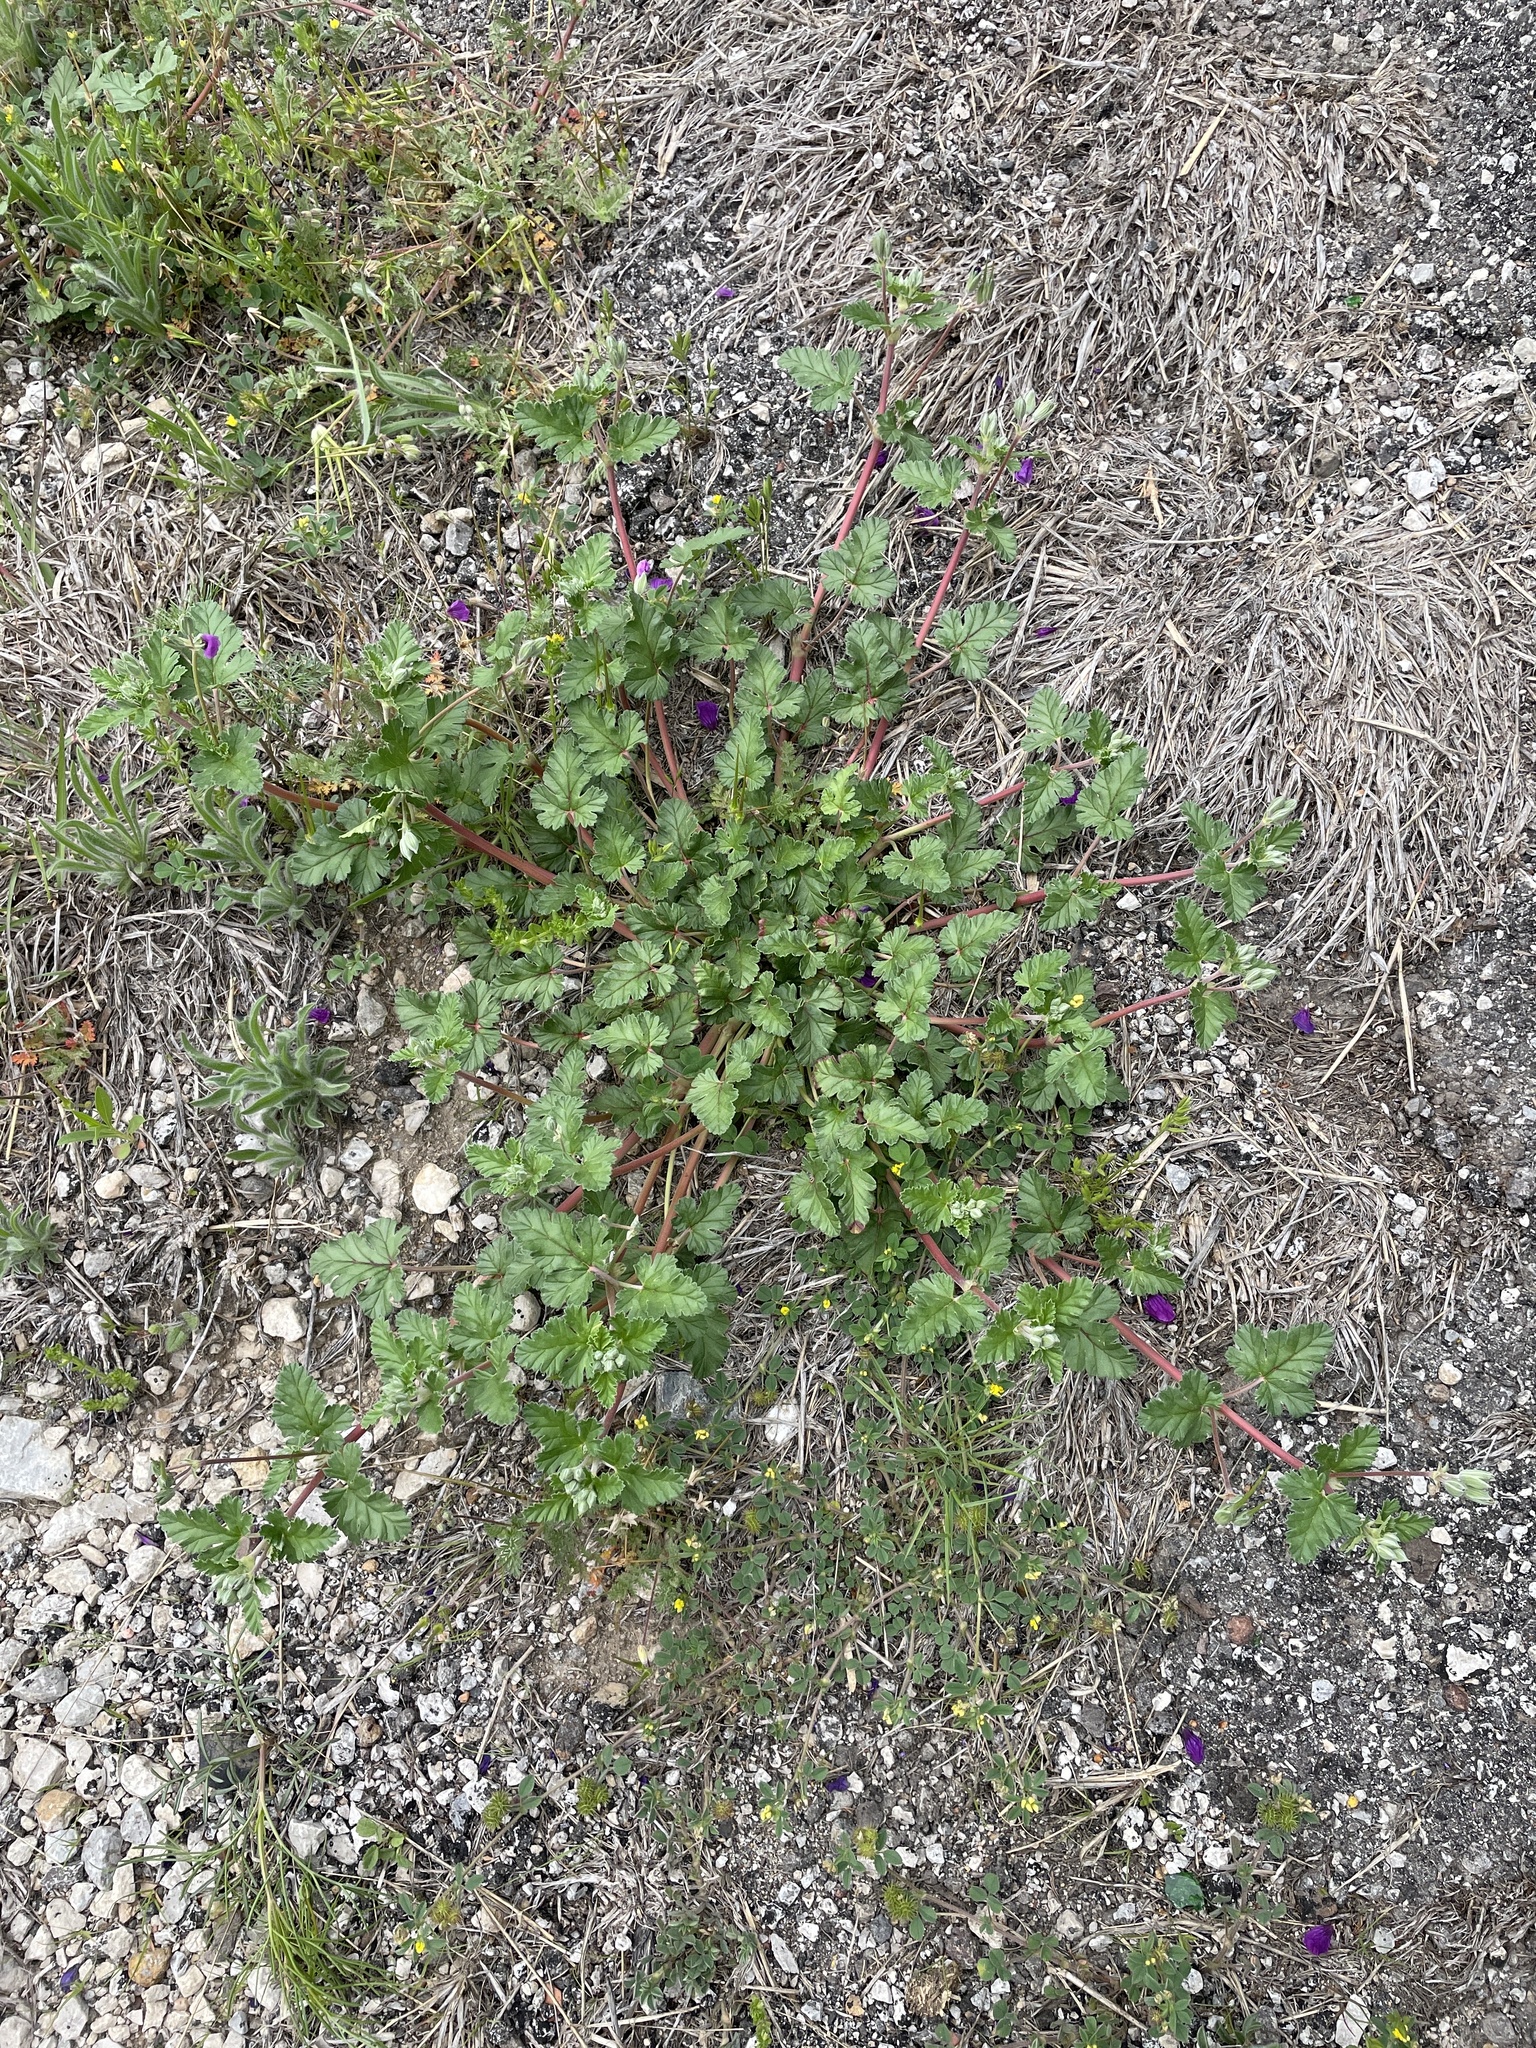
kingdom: Plantae
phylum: Tracheophyta
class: Magnoliopsida
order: Geraniales
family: Geraniaceae
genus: Erodium
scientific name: Erodium texanum
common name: Texas stork's-bill
